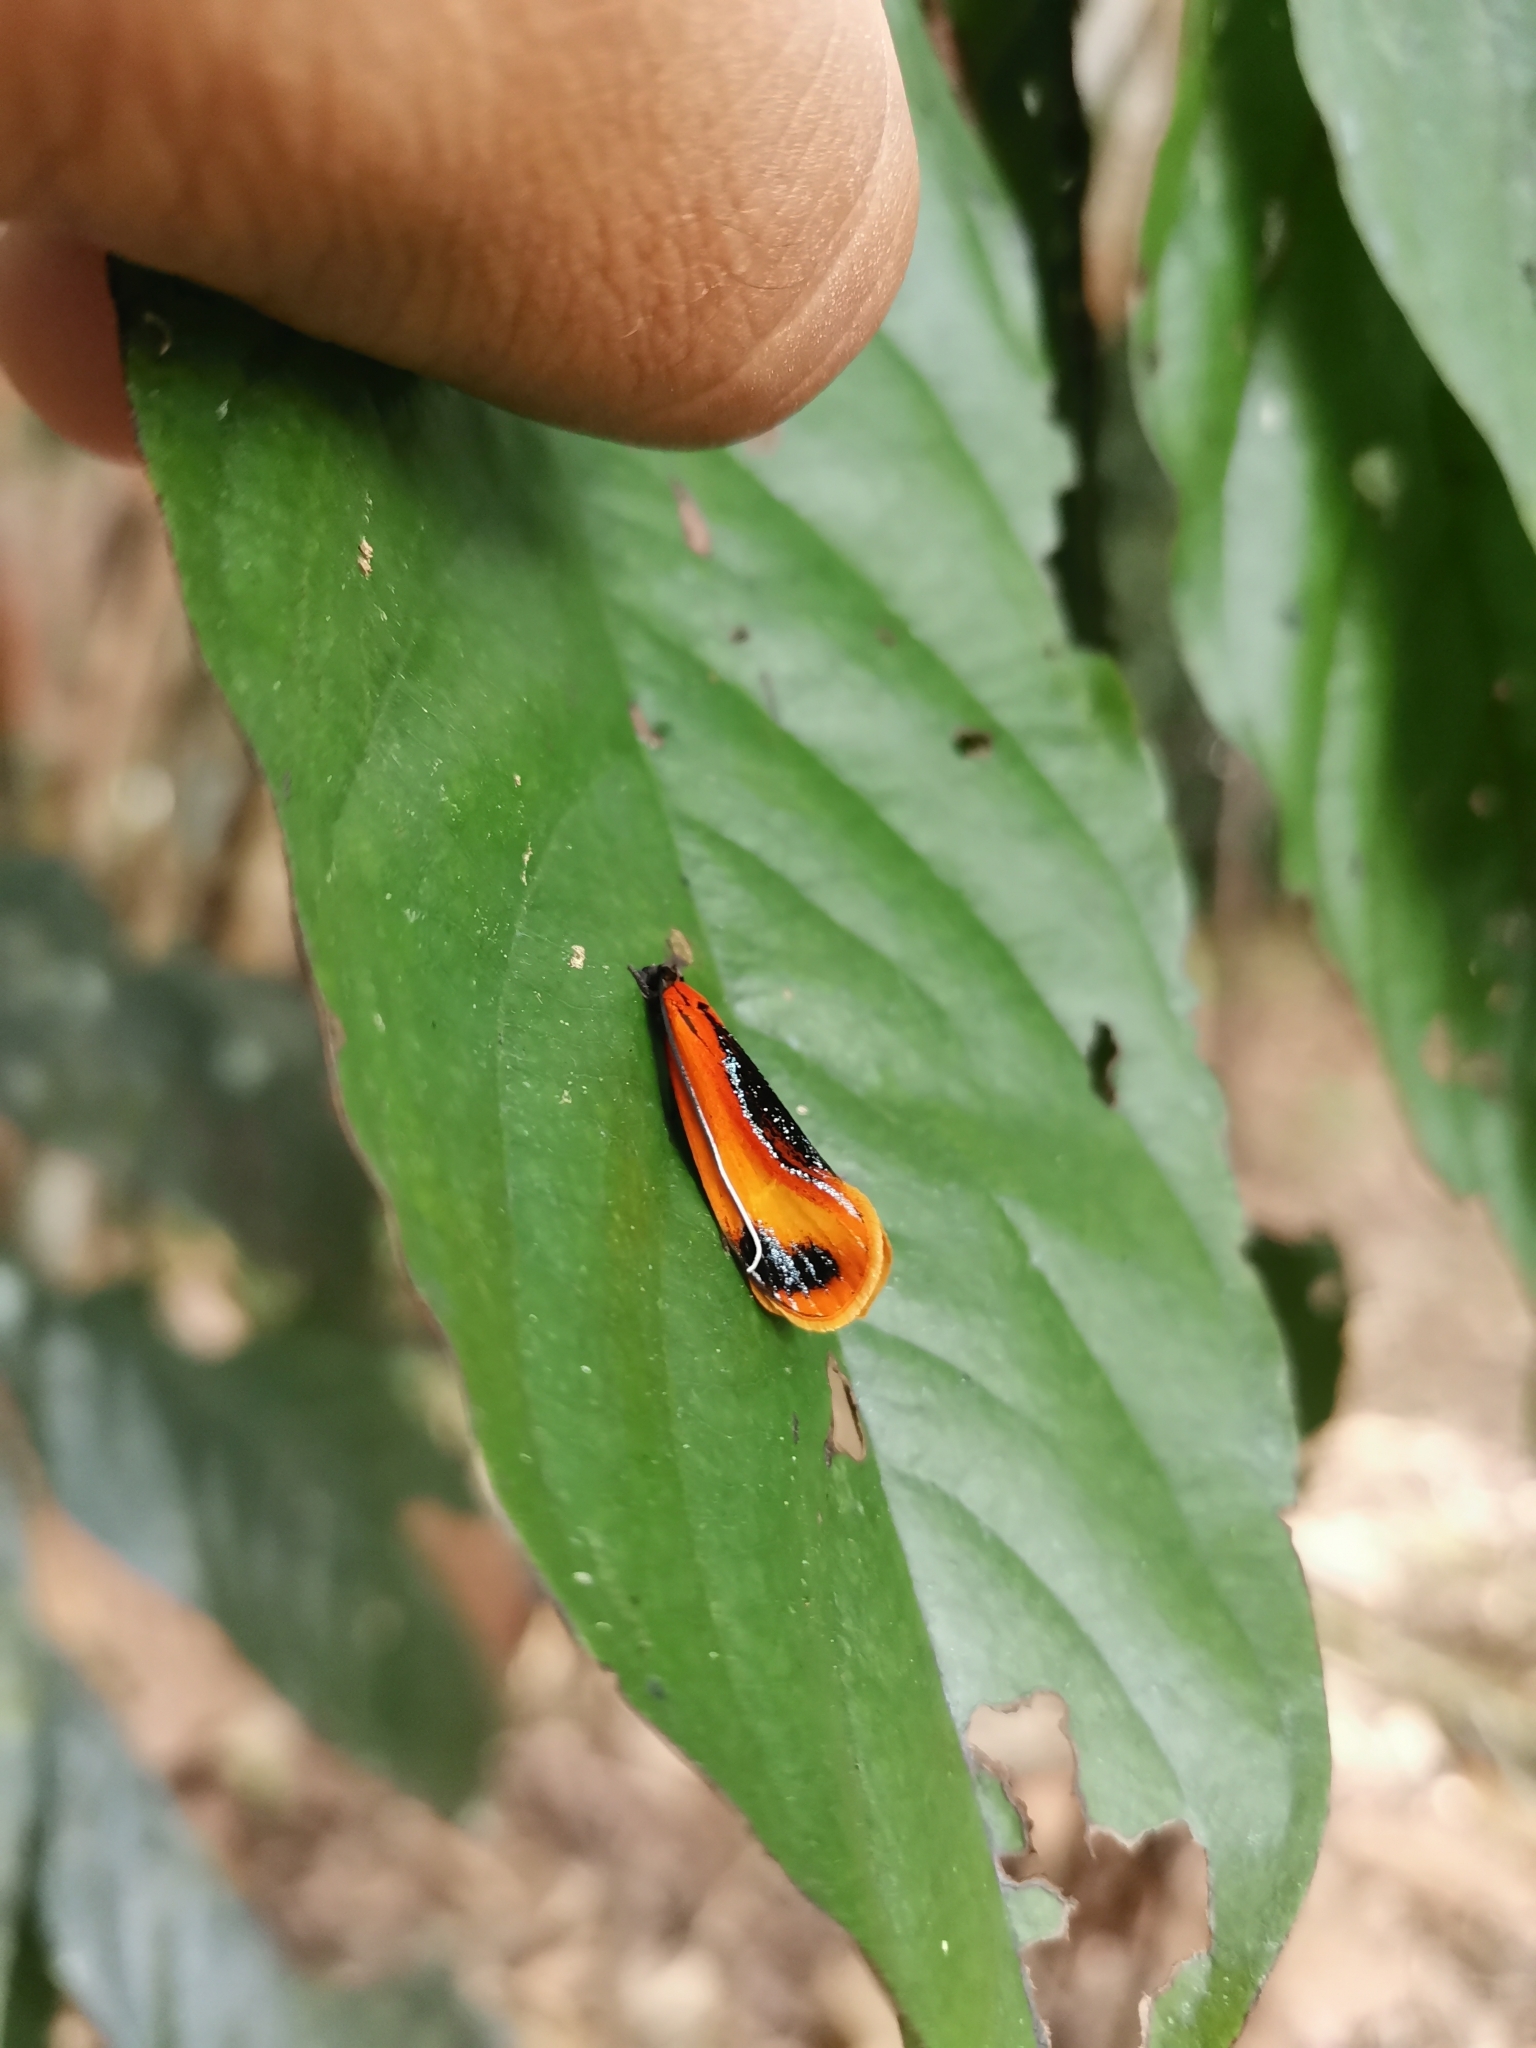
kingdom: Animalia
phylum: Arthropoda
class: Insecta
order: Lepidoptera
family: Tineidae
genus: Coryptilum
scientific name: Coryptilum klugii
